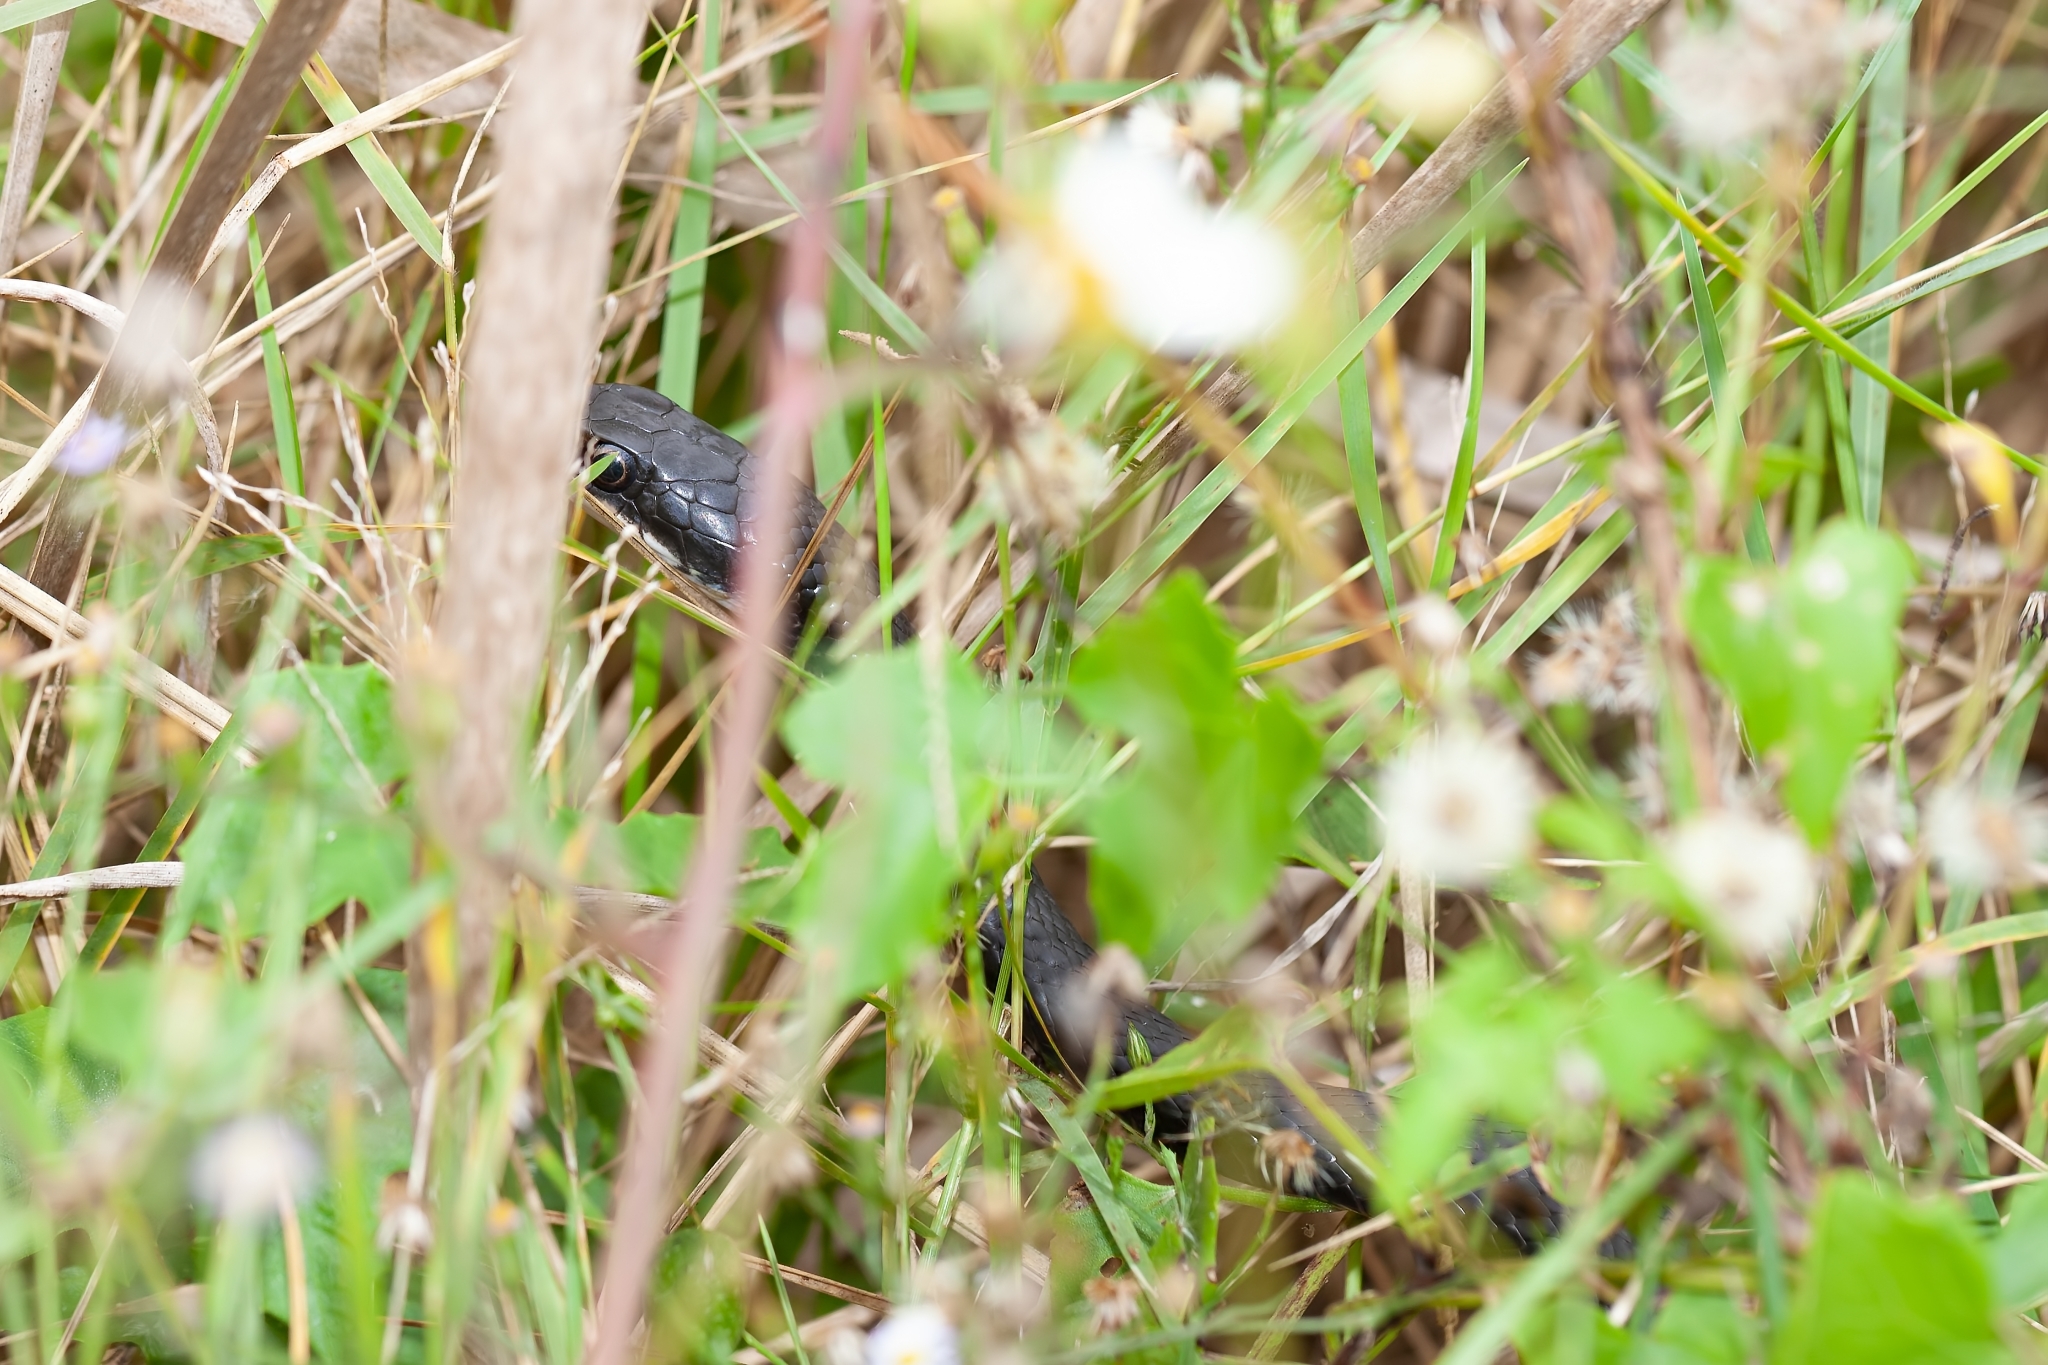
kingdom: Animalia
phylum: Chordata
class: Squamata
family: Colubridae
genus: Coluber
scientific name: Coluber constrictor
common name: Eastern racer
